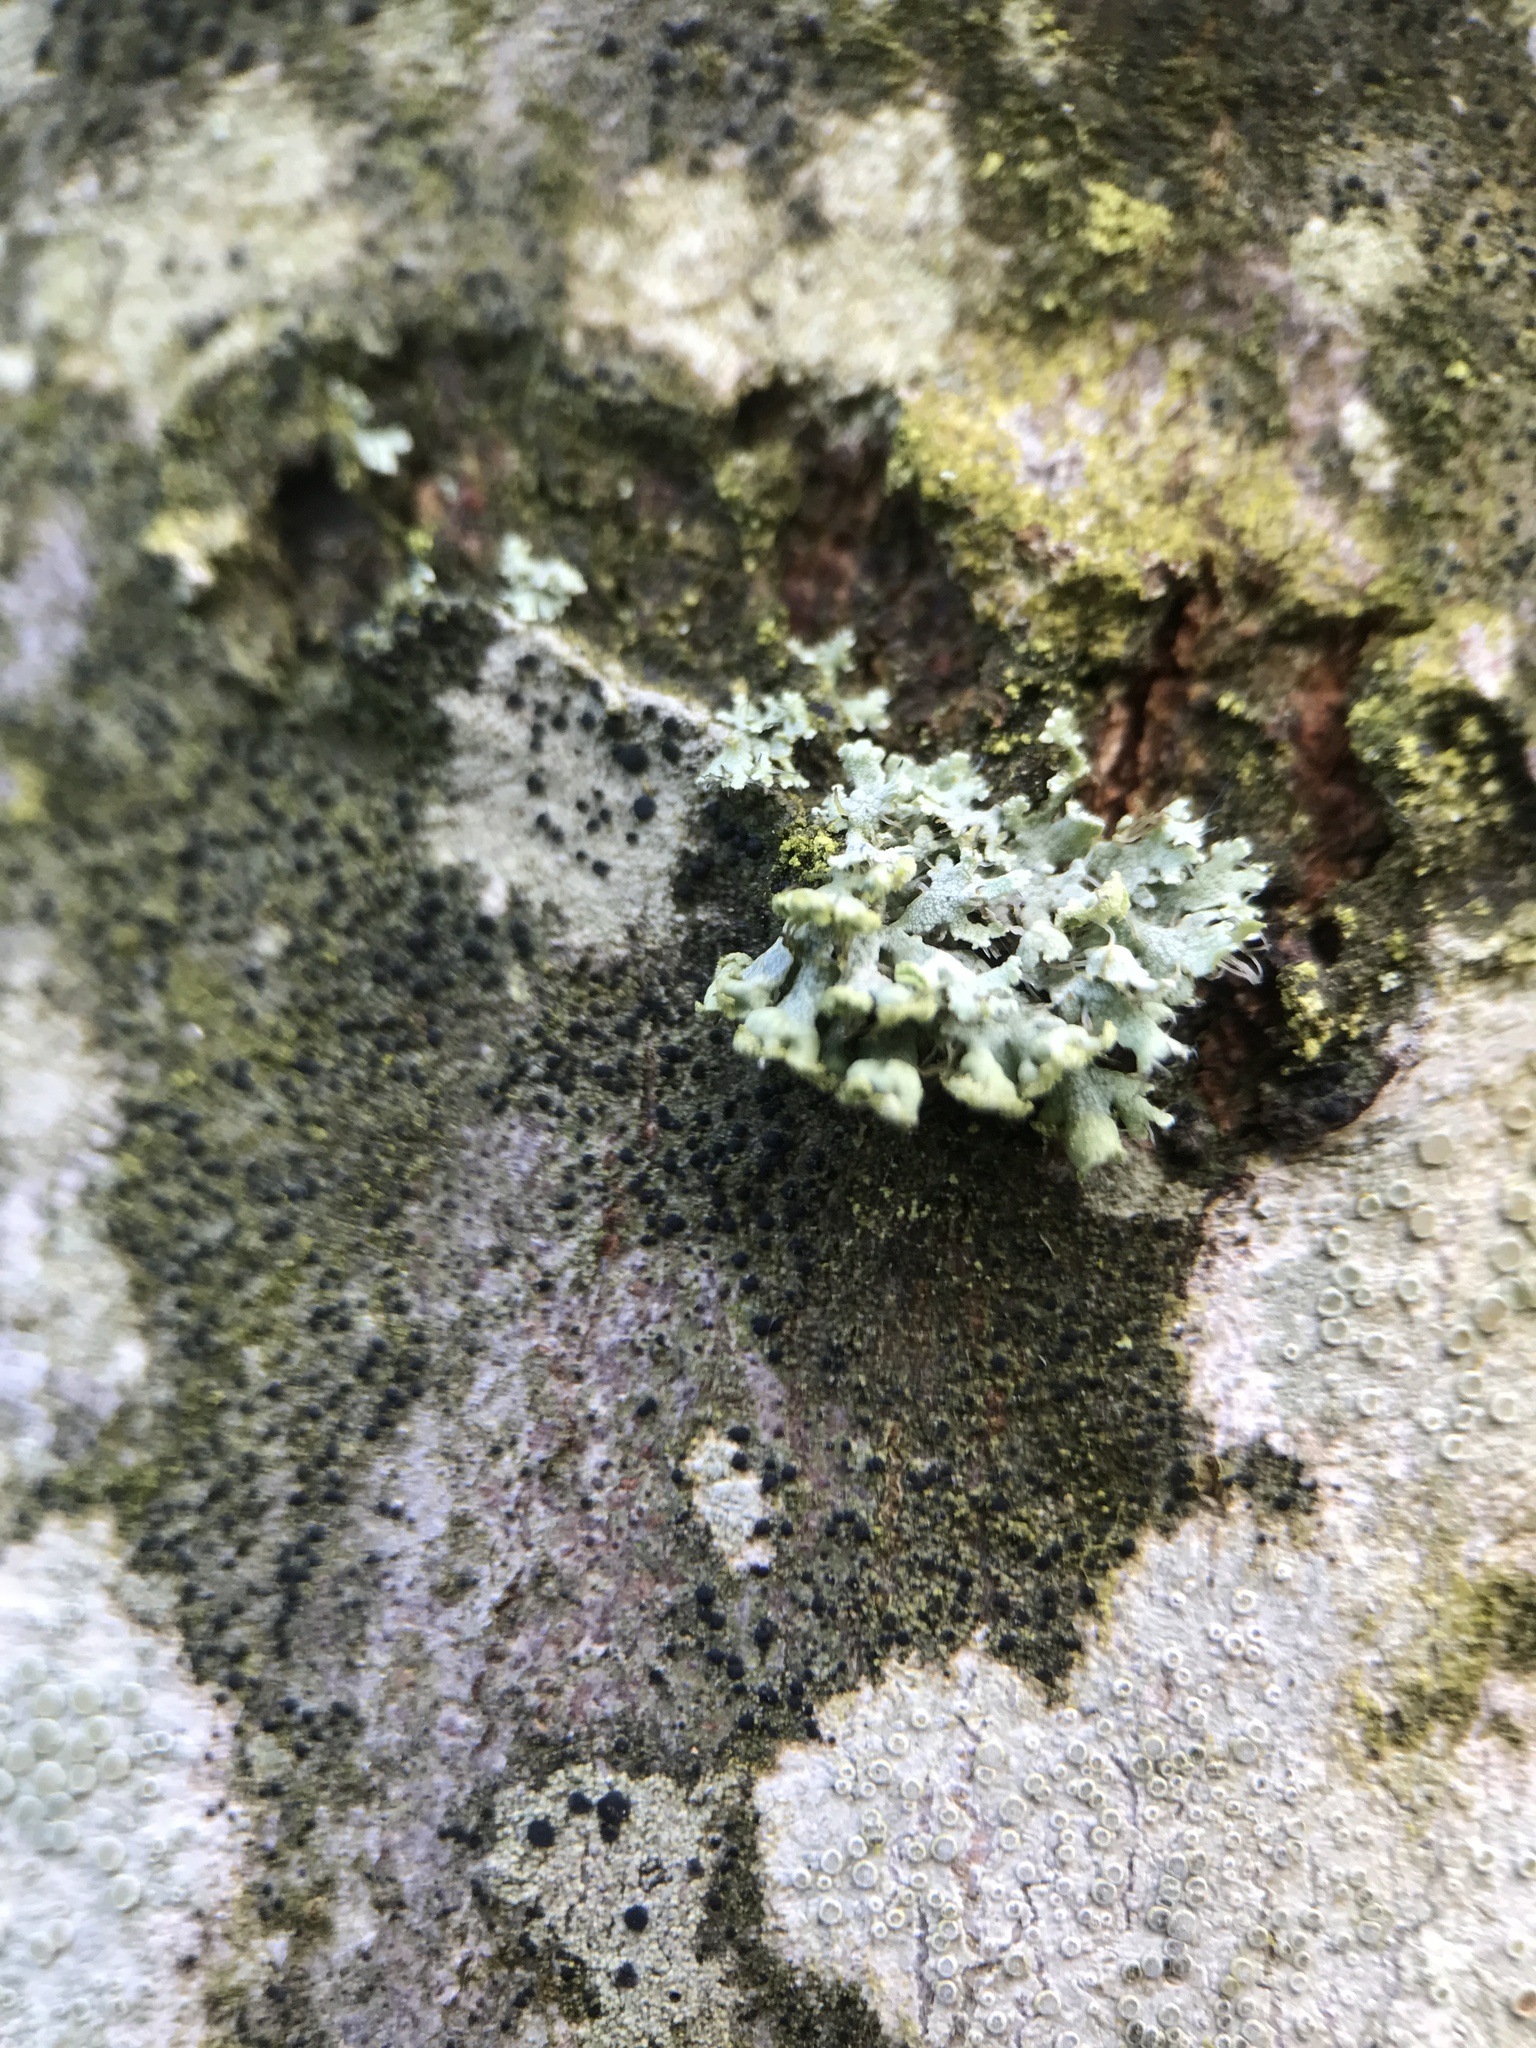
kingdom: Fungi
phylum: Ascomycota
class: Lecanoromycetes
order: Caliciales
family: Physciaceae
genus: Physcia
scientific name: Physcia adscendens
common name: Hooded rosette lichen
